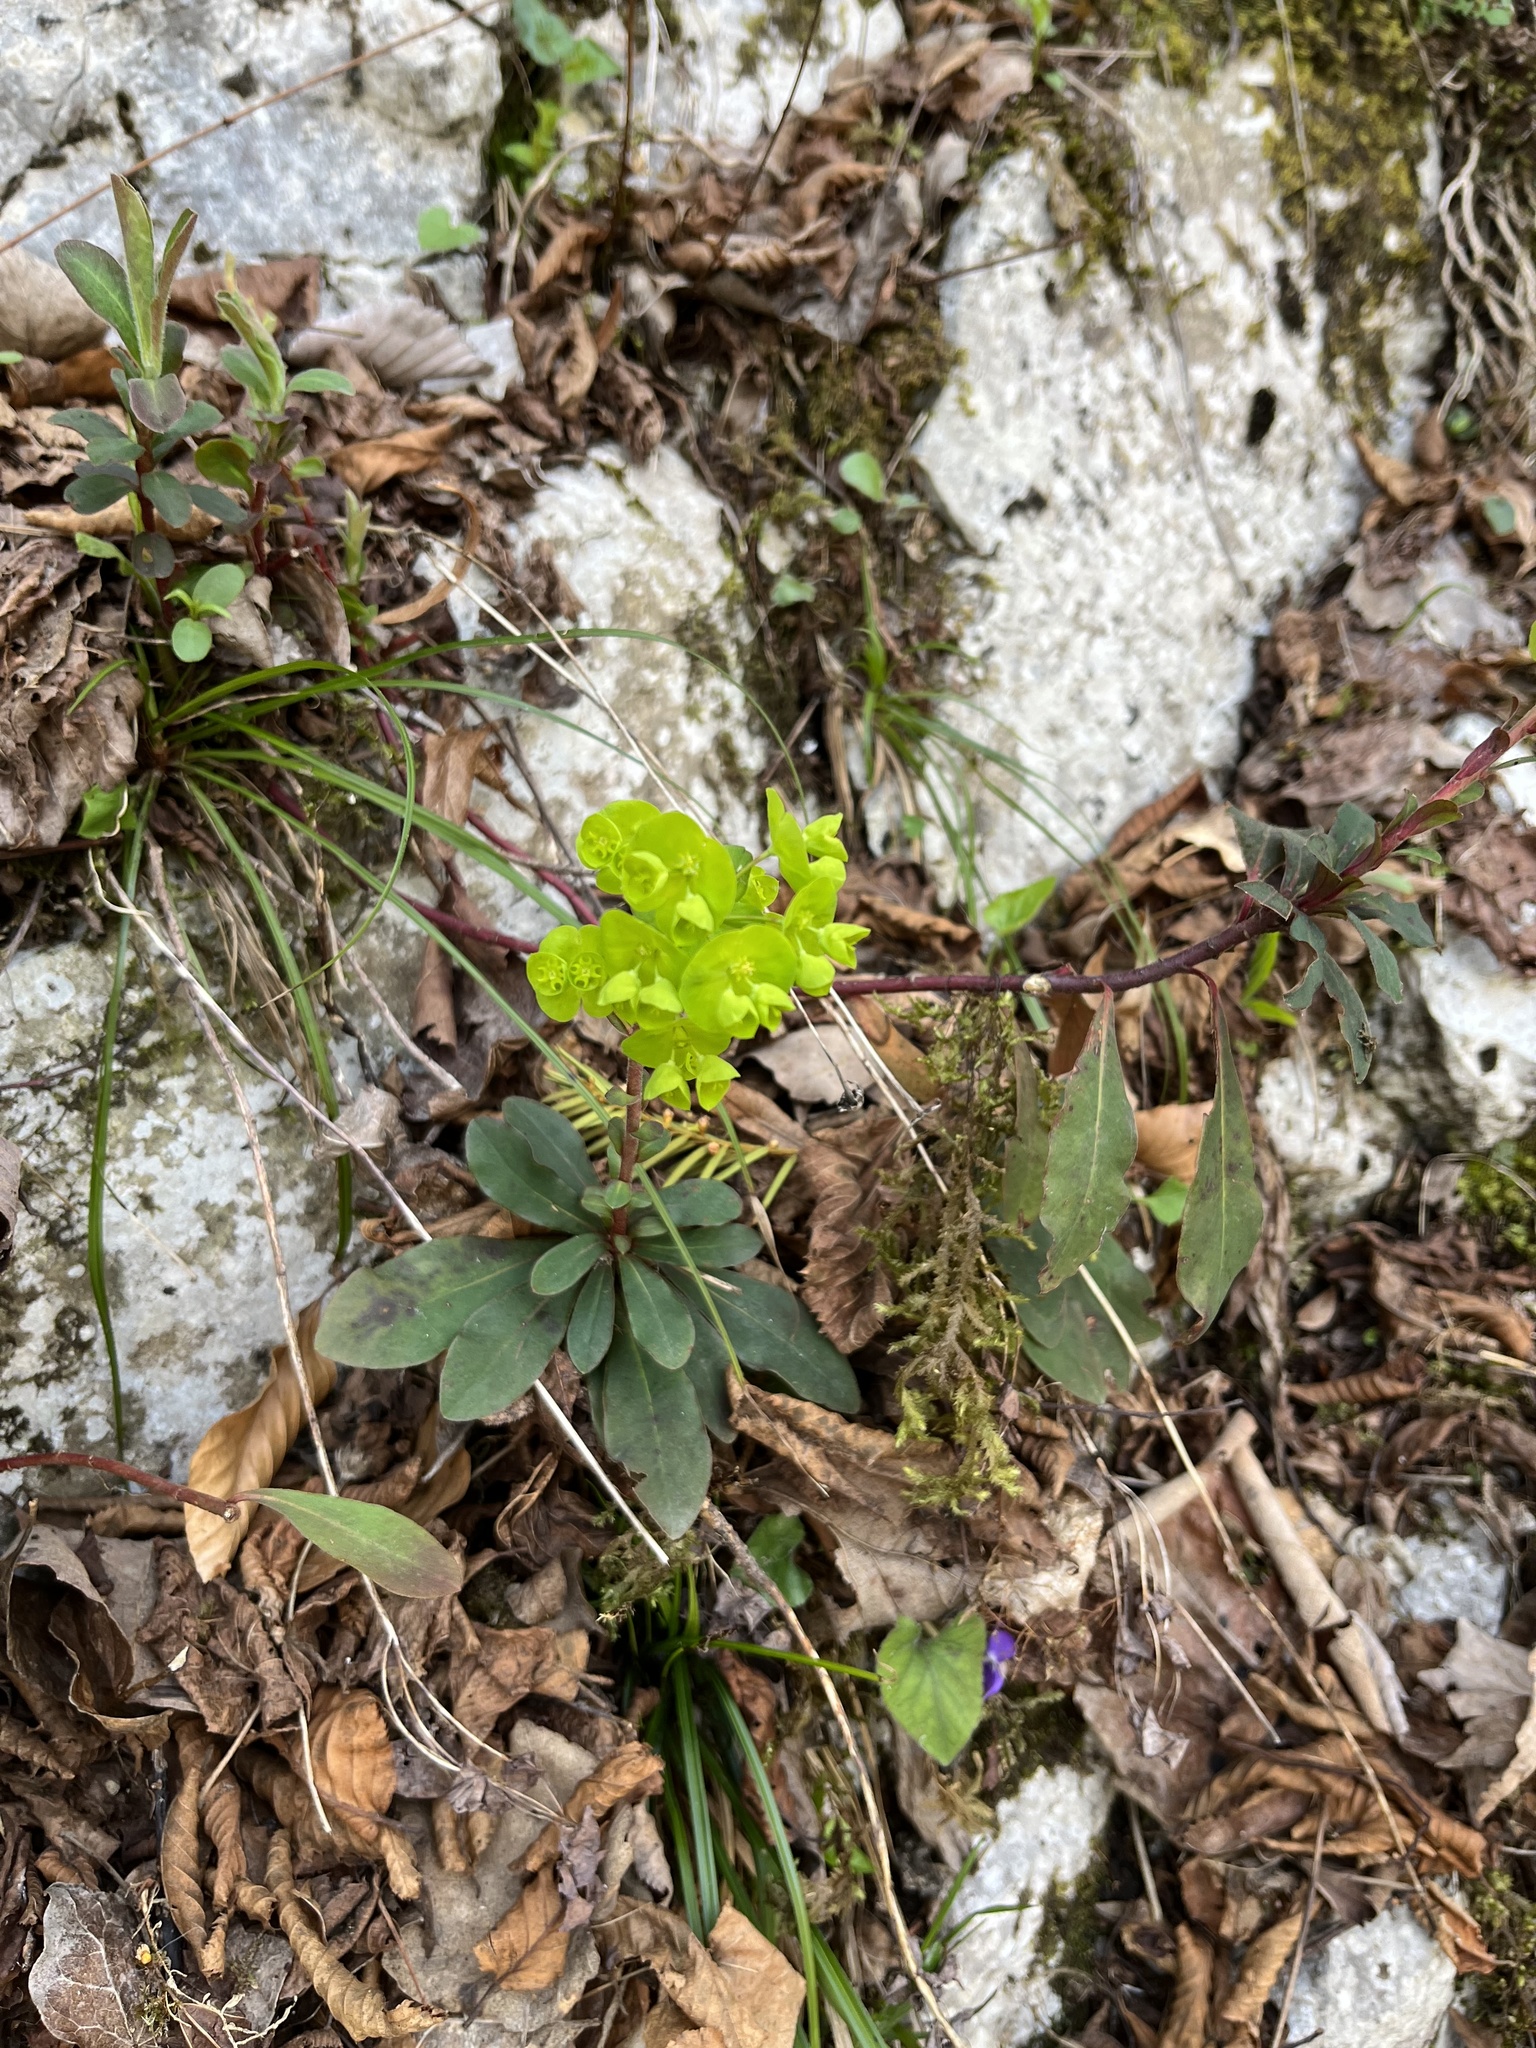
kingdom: Plantae
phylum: Tracheophyta
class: Magnoliopsida
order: Malpighiales
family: Euphorbiaceae
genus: Euphorbia
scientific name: Euphorbia amygdaloides
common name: Wood spurge
